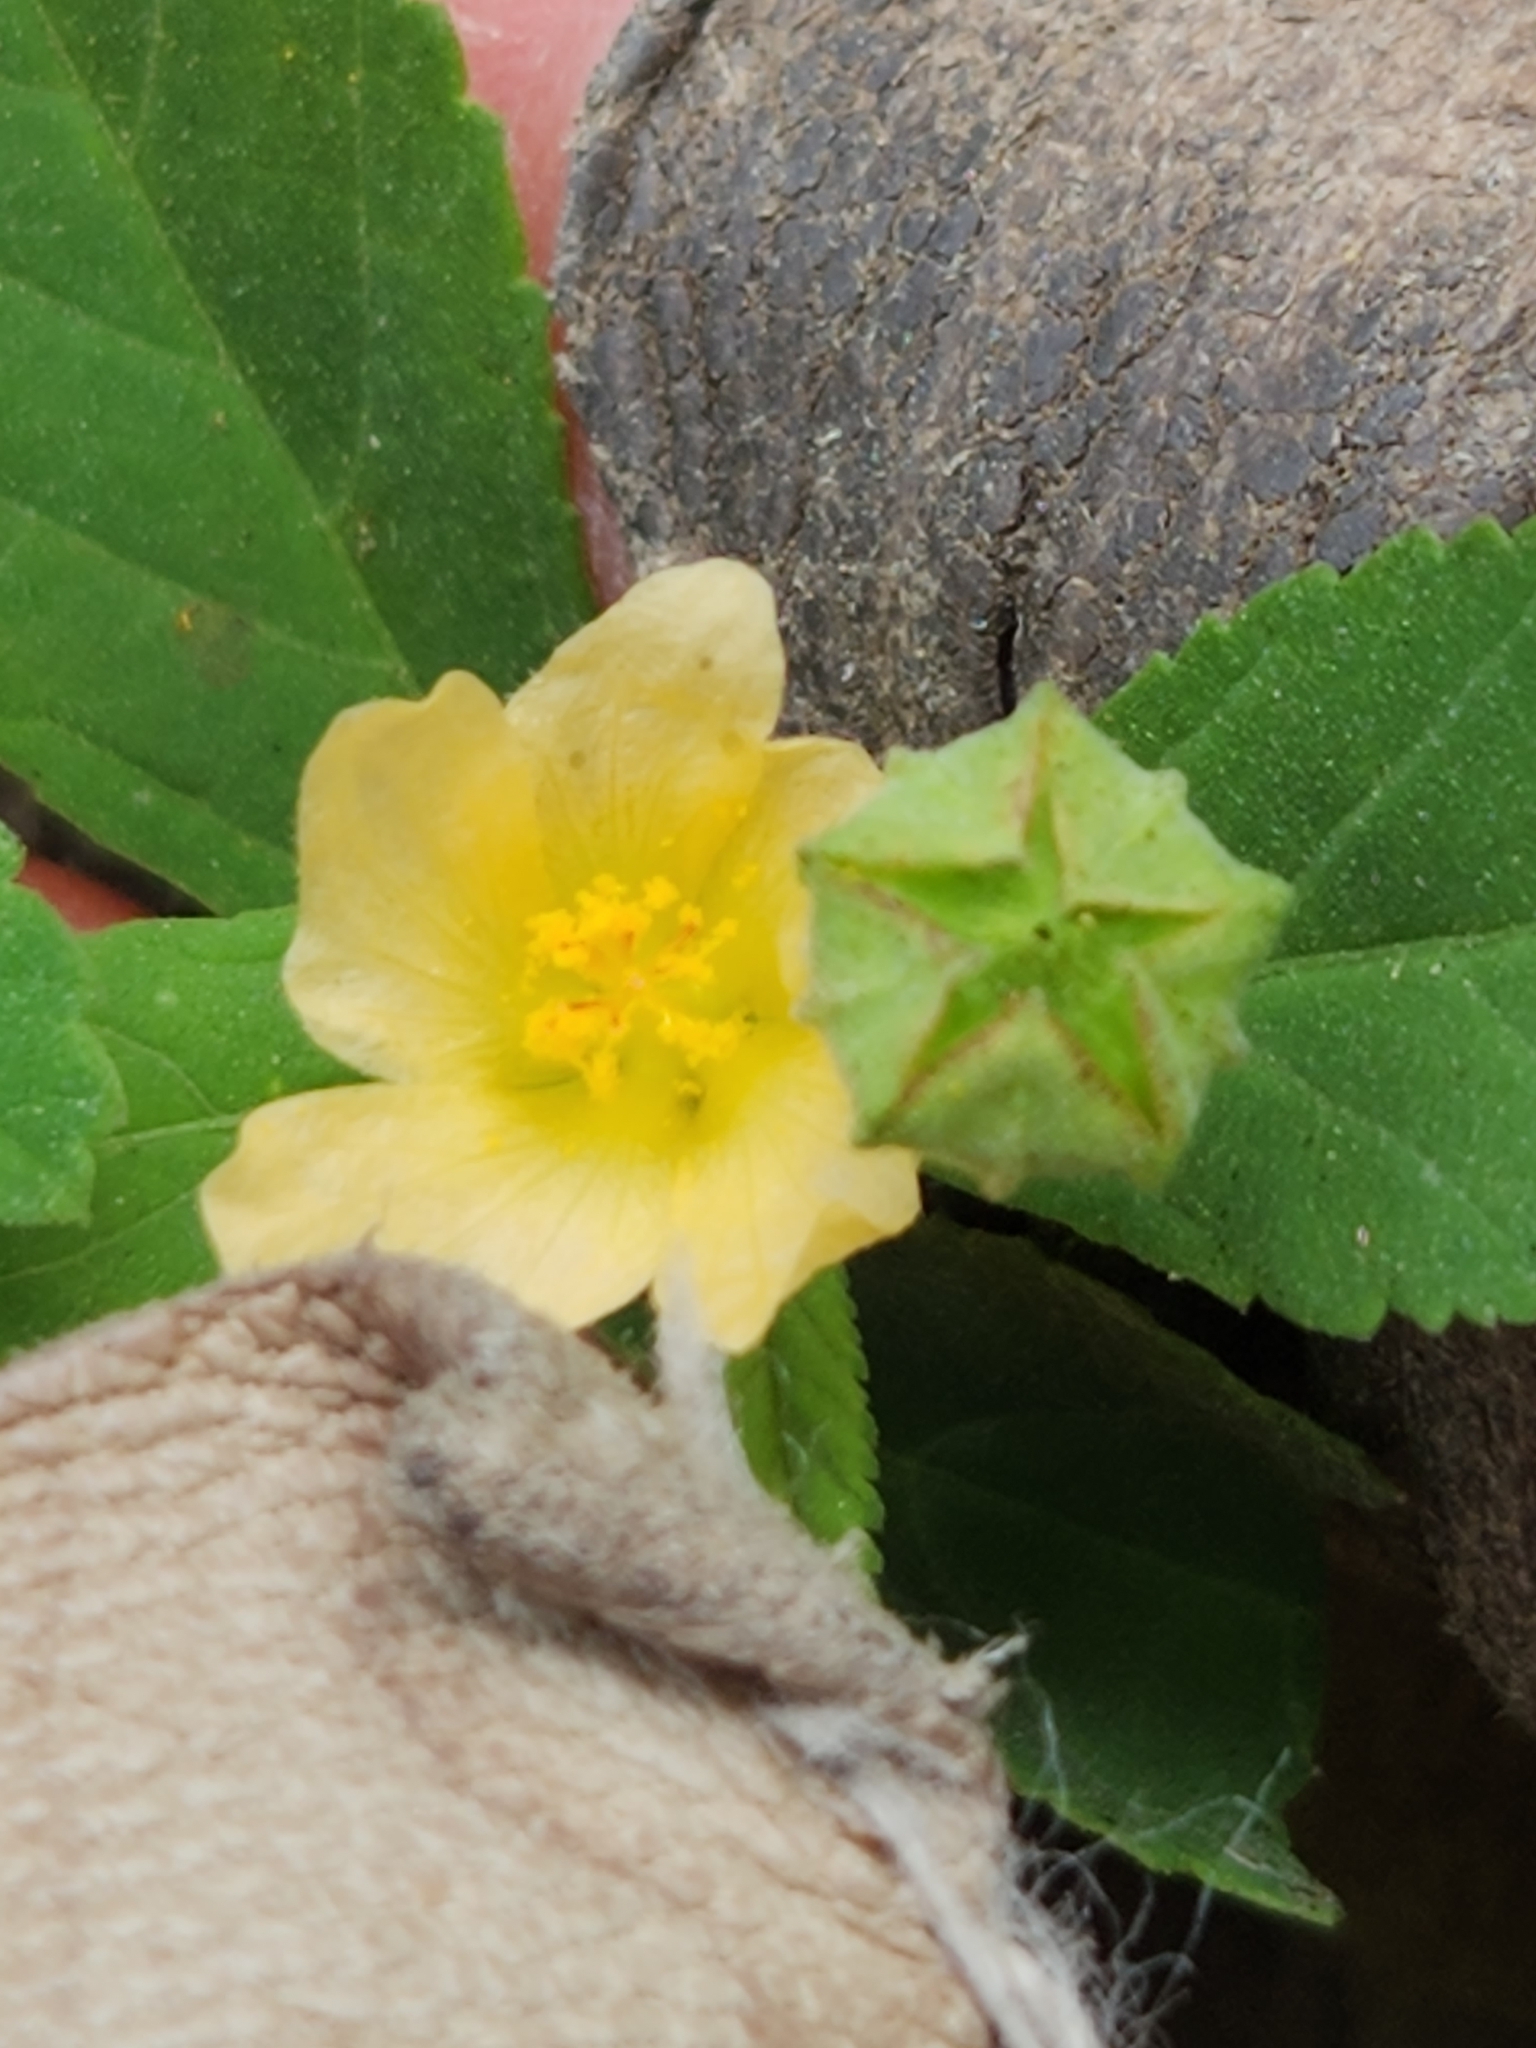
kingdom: Plantae
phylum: Tracheophyta
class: Magnoliopsida
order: Malvales
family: Malvaceae
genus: Sida
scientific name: Sida rhombifolia
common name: Queensland-hemp
